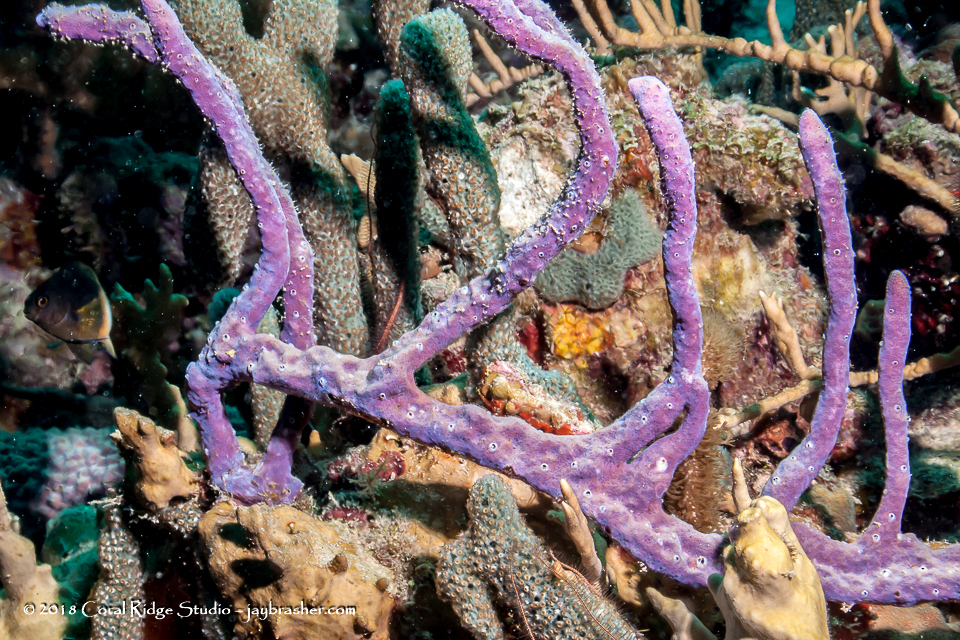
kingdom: Animalia
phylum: Porifera
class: Demospongiae
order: Verongiida
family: Aplysinidae
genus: Aplysina
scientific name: Aplysina cauliformis
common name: Branching candle sponge
